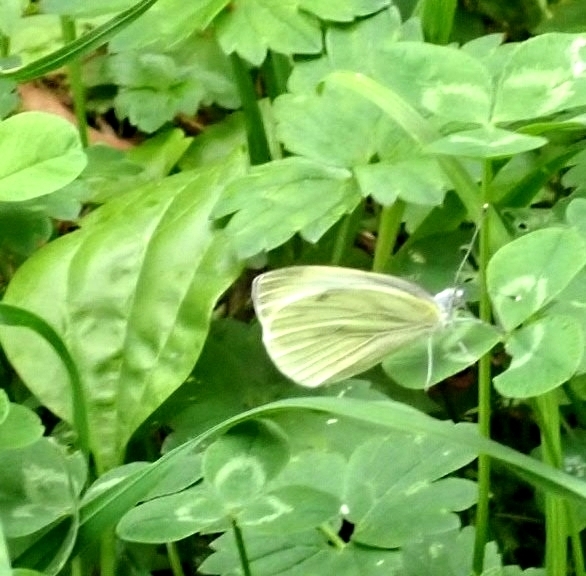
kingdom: Animalia
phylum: Arthropoda
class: Insecta
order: Lepidoptera
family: Pieridae
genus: Pieris
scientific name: Pieris napi
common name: Green-veined white
